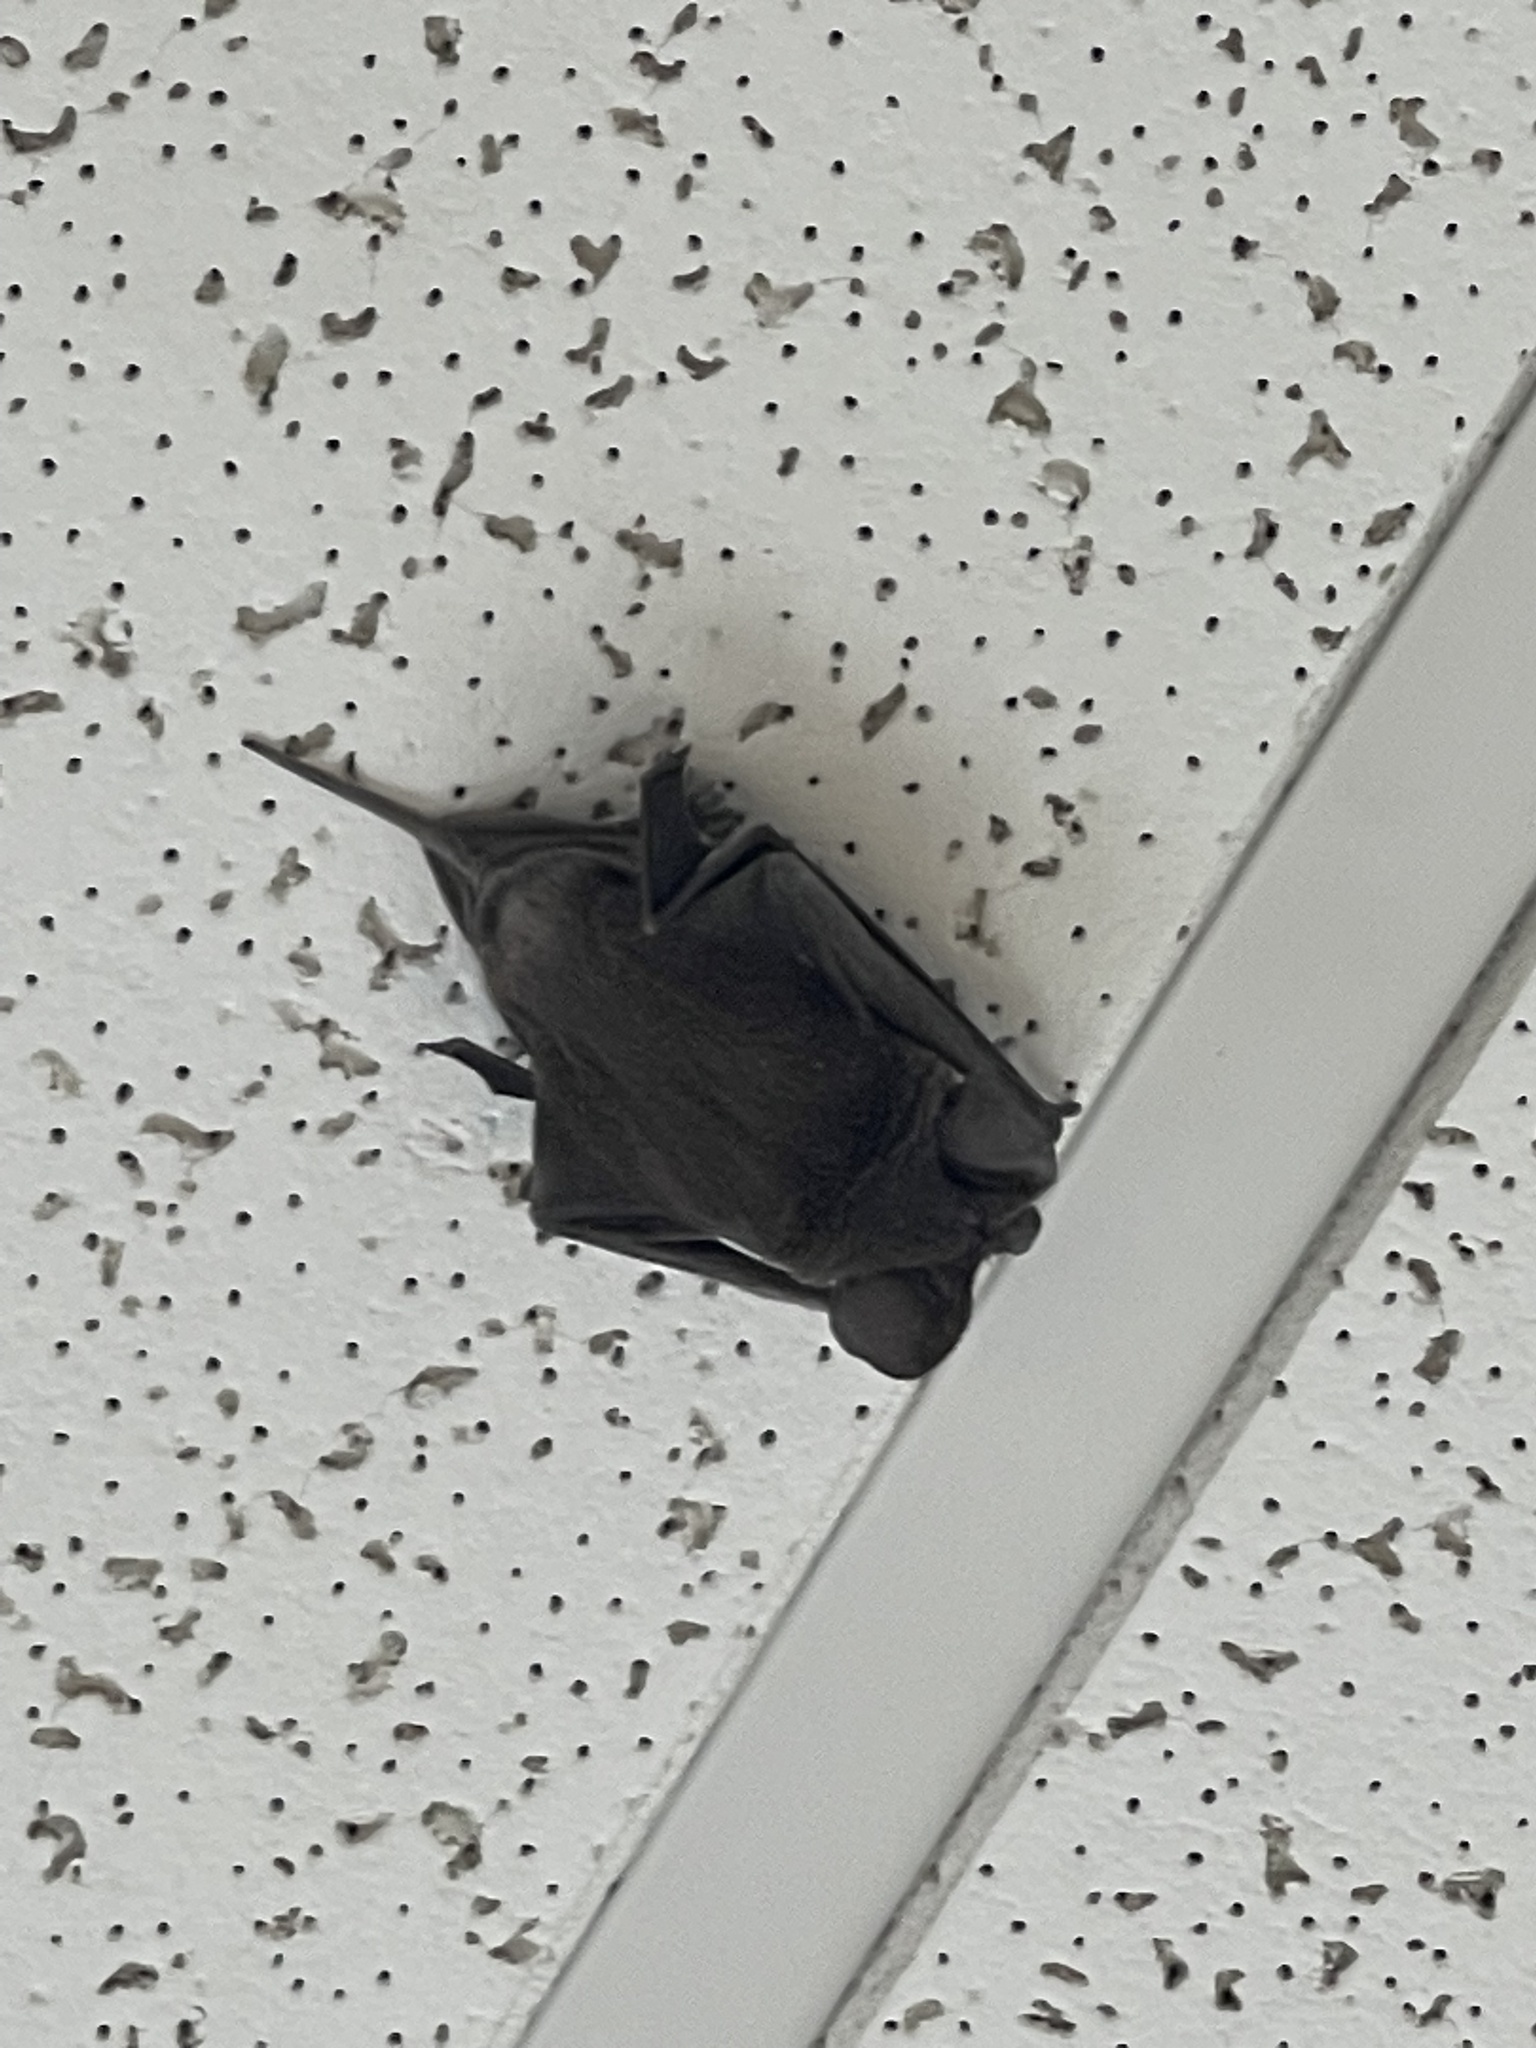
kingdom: Animalia
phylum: Chordata
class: Mammalia
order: Chiroptera
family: Molossidae
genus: Tadarida
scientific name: Tadarida brasiliensis
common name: Mexican free-tailed bat
